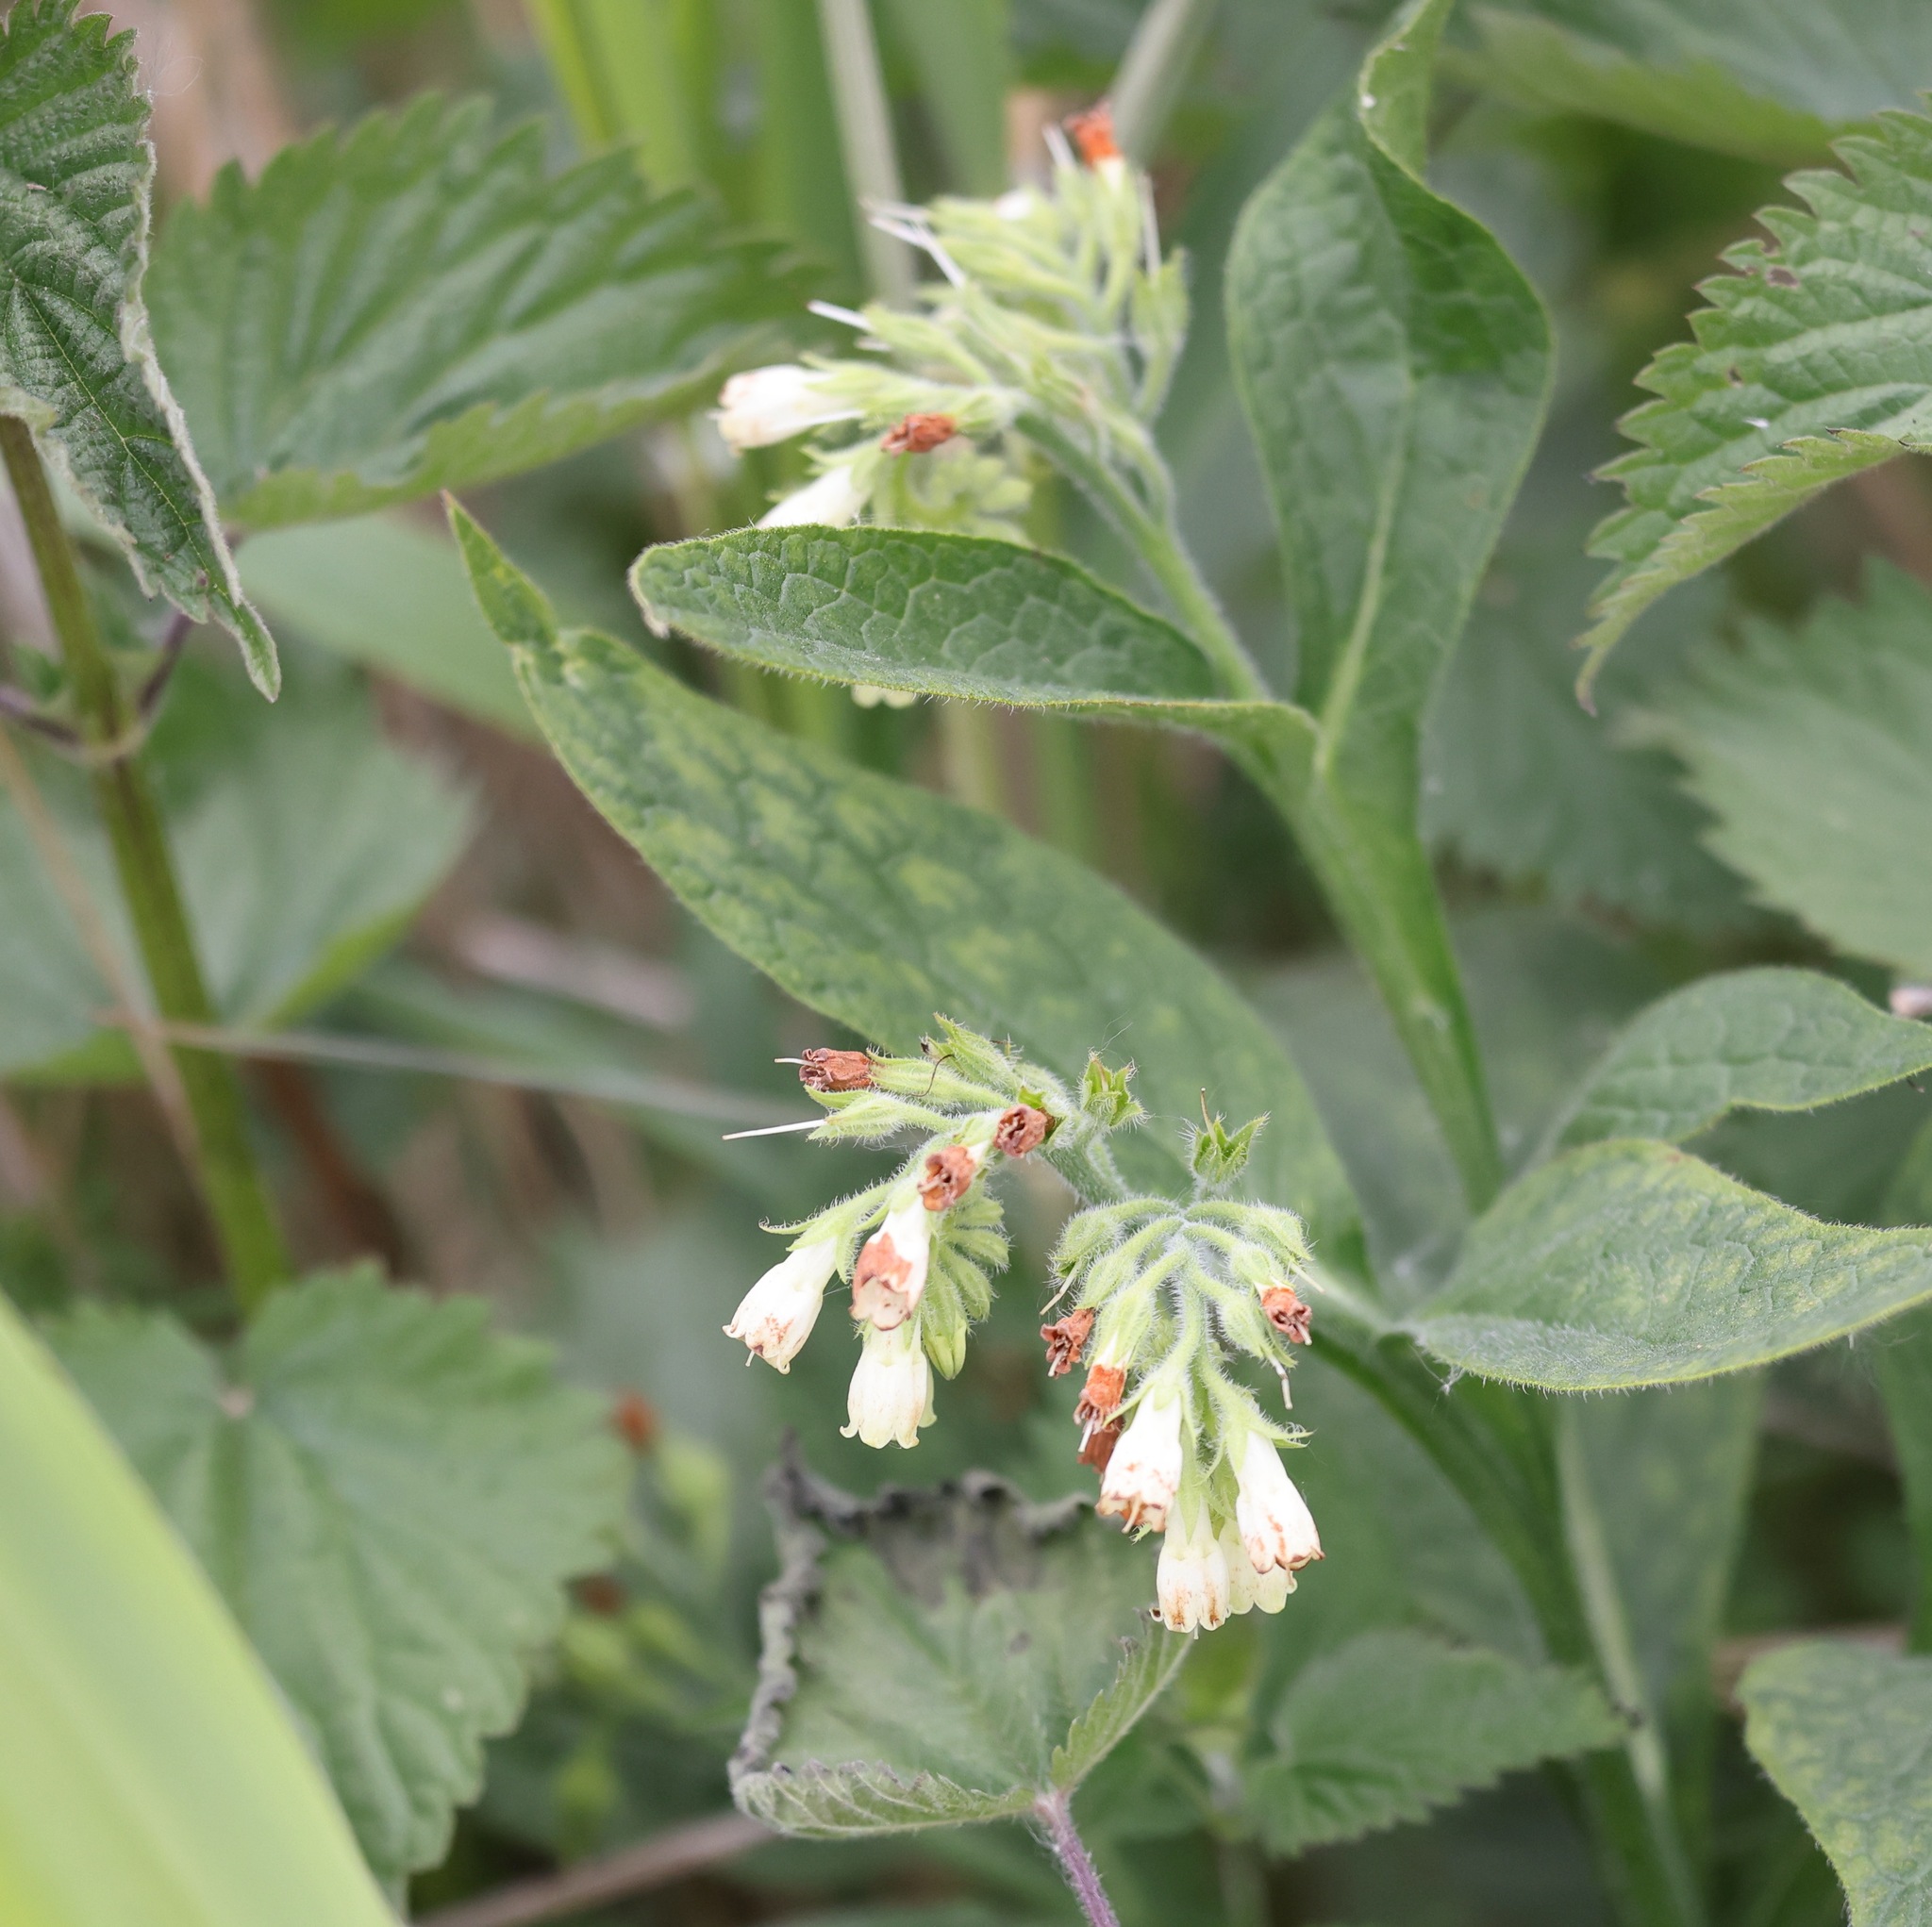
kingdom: Plantae
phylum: Tracheophyta
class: Magnoliopsida
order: Boraginales
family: Boraginaceae
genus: Symphytum
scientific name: Symphytum officinale
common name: Common comfrey
